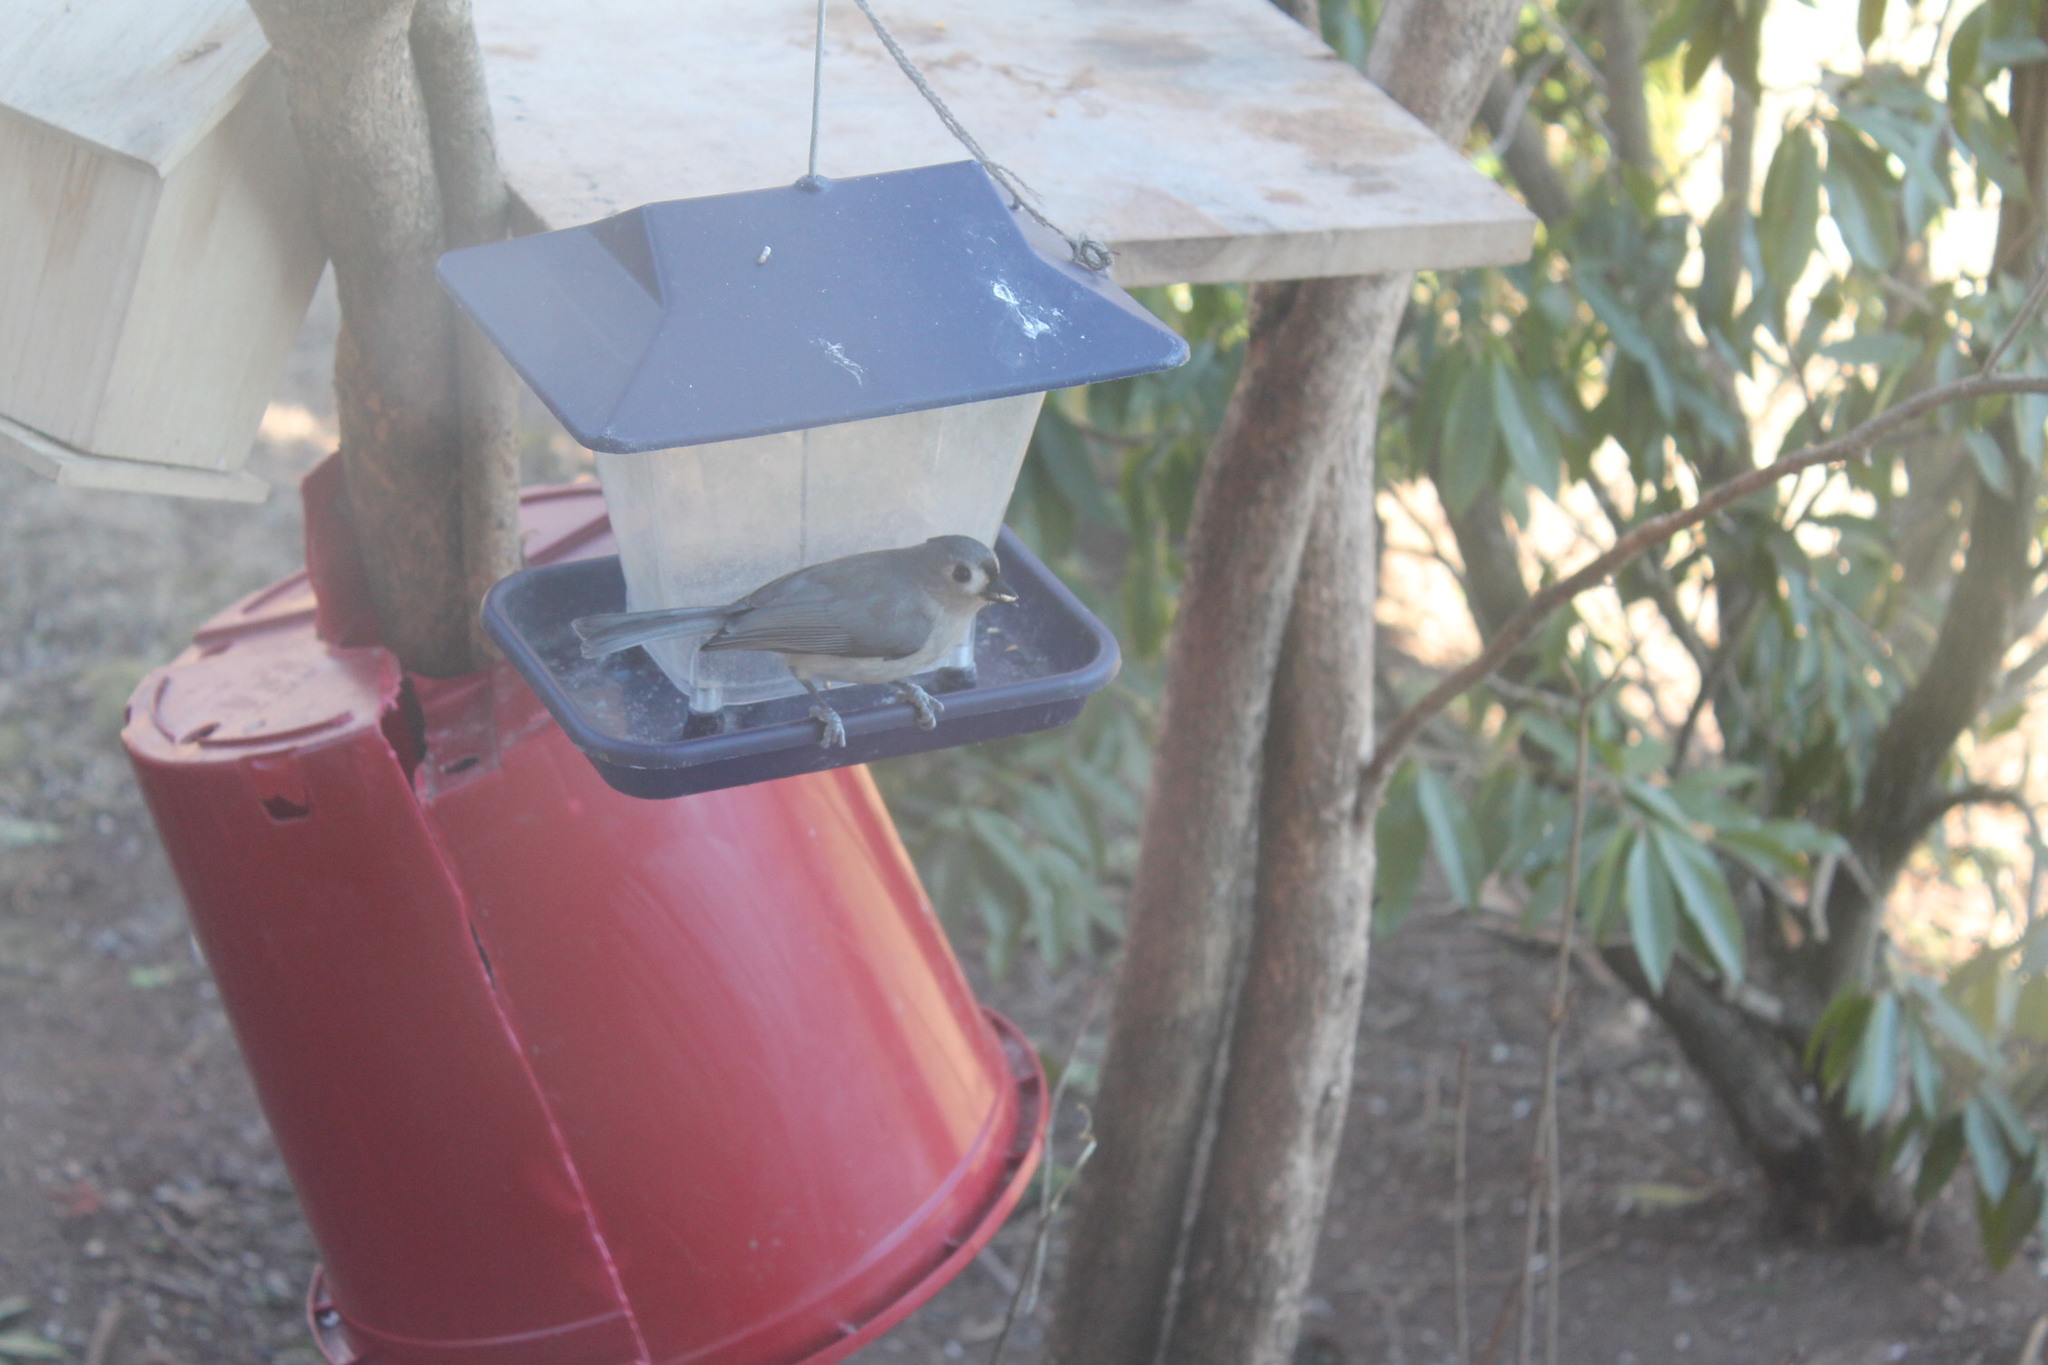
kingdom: Animalia
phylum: Chordata
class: Aves
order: Passeriformes
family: Paridae
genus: Baeolophus
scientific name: Baeolophus bicolor
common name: Tufted titmouse
